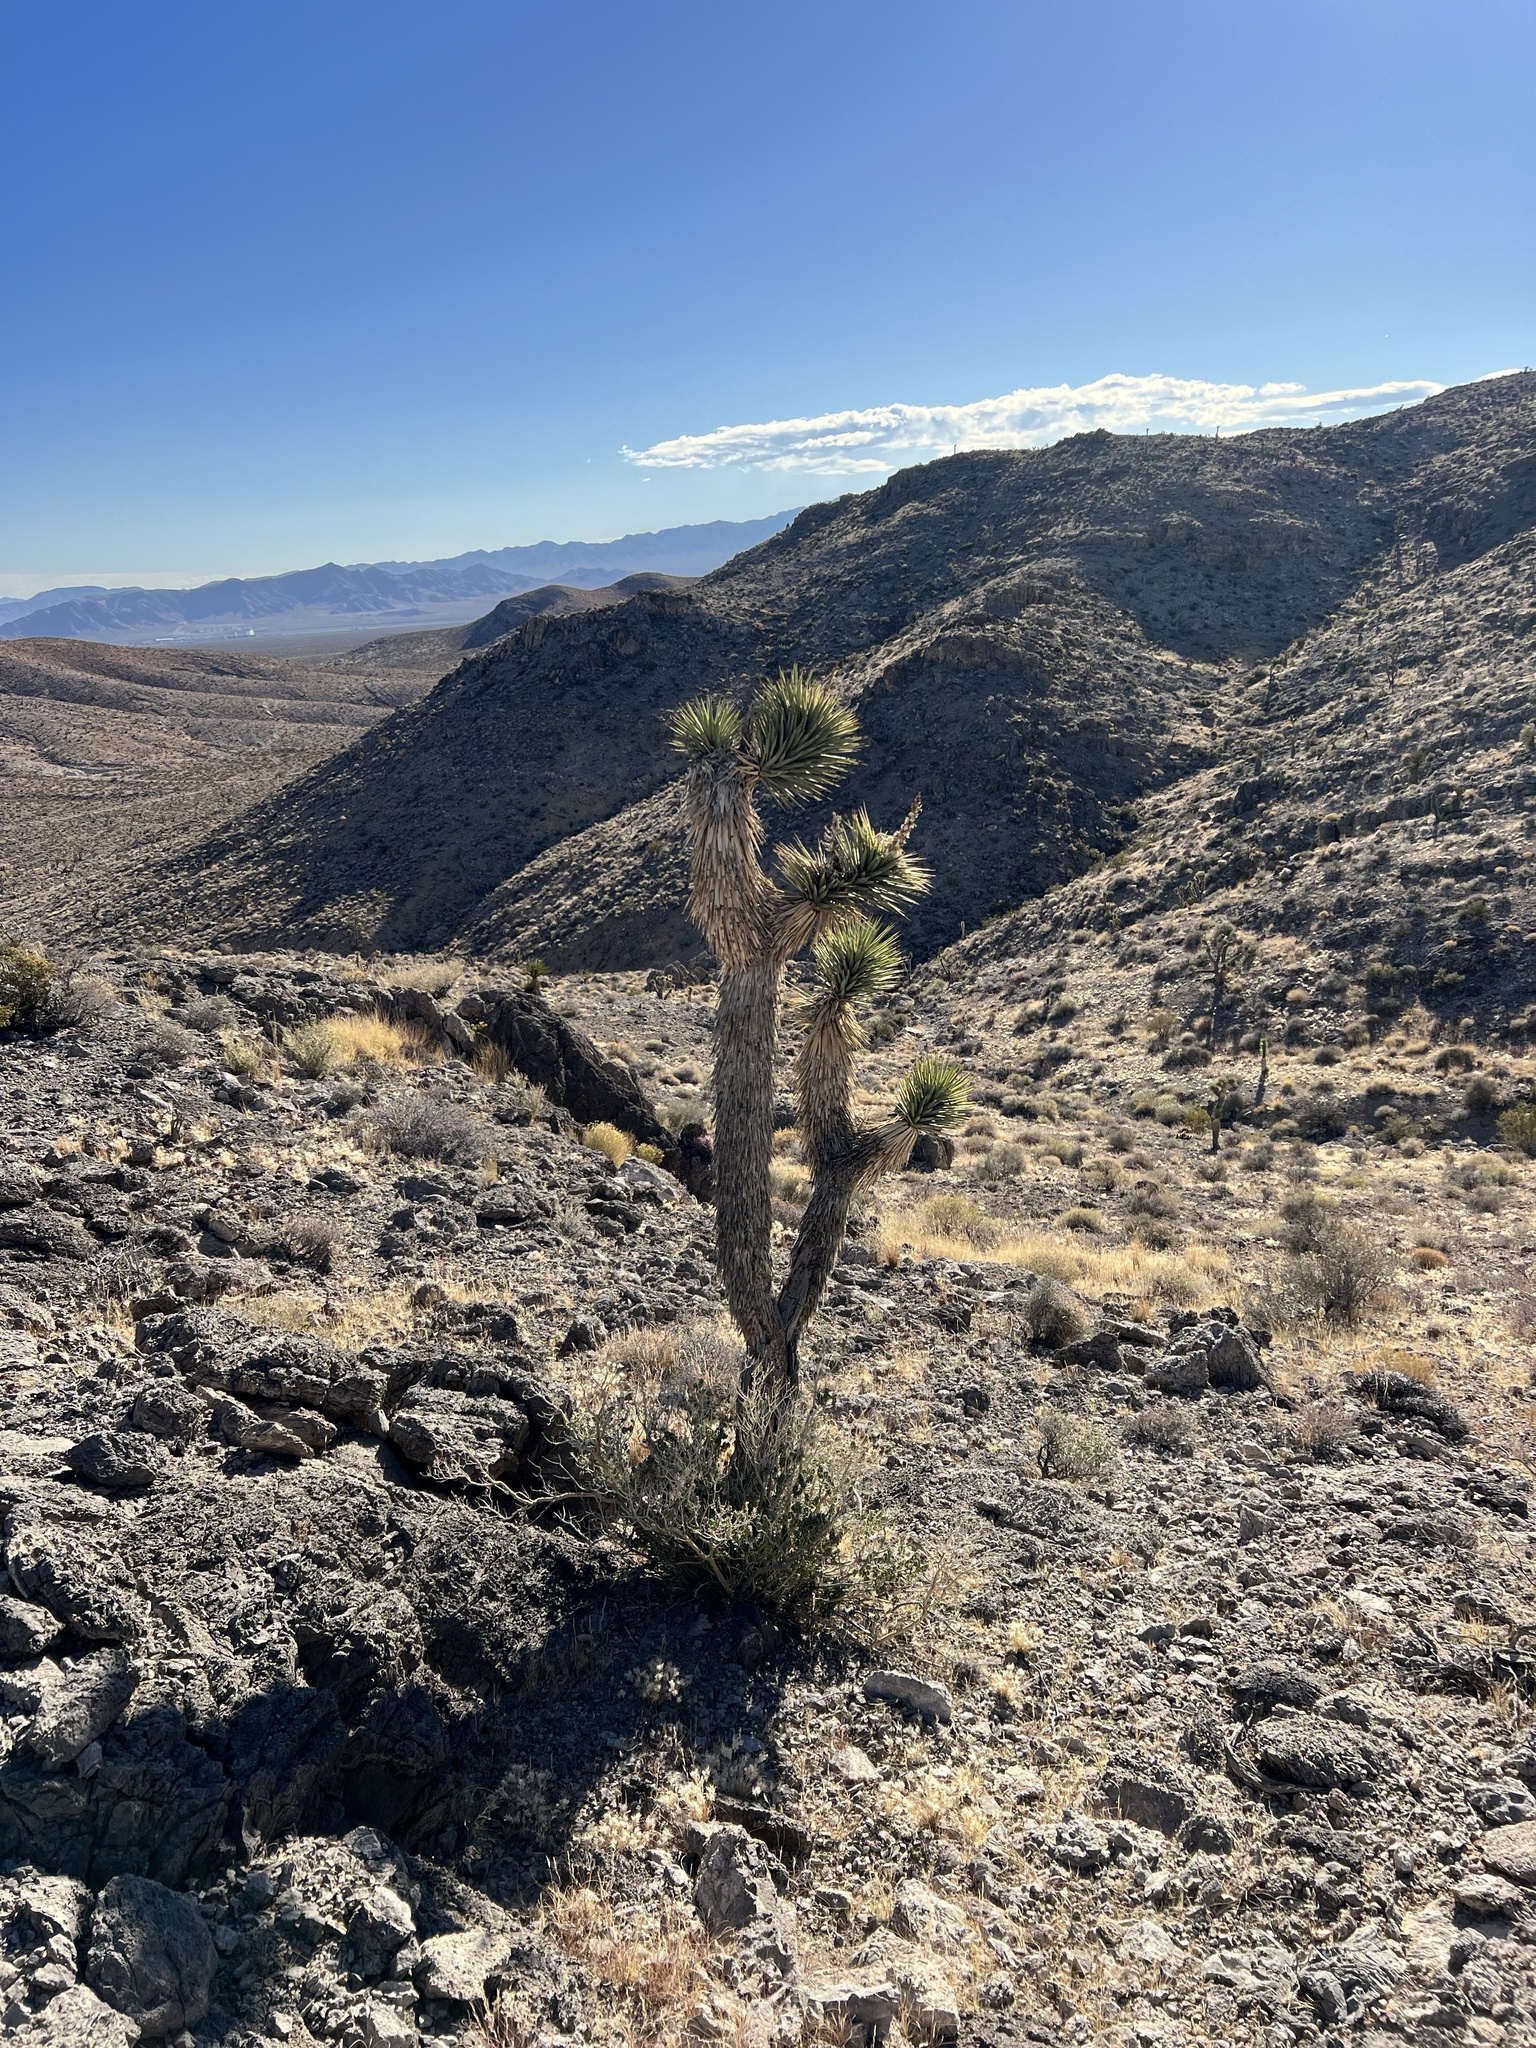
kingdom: Plantae
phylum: Tracheophyta
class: Liliopsida
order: Asparagales
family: Asparagaceae
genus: Yucca
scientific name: Yucca brevifolia
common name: Joshua tree
